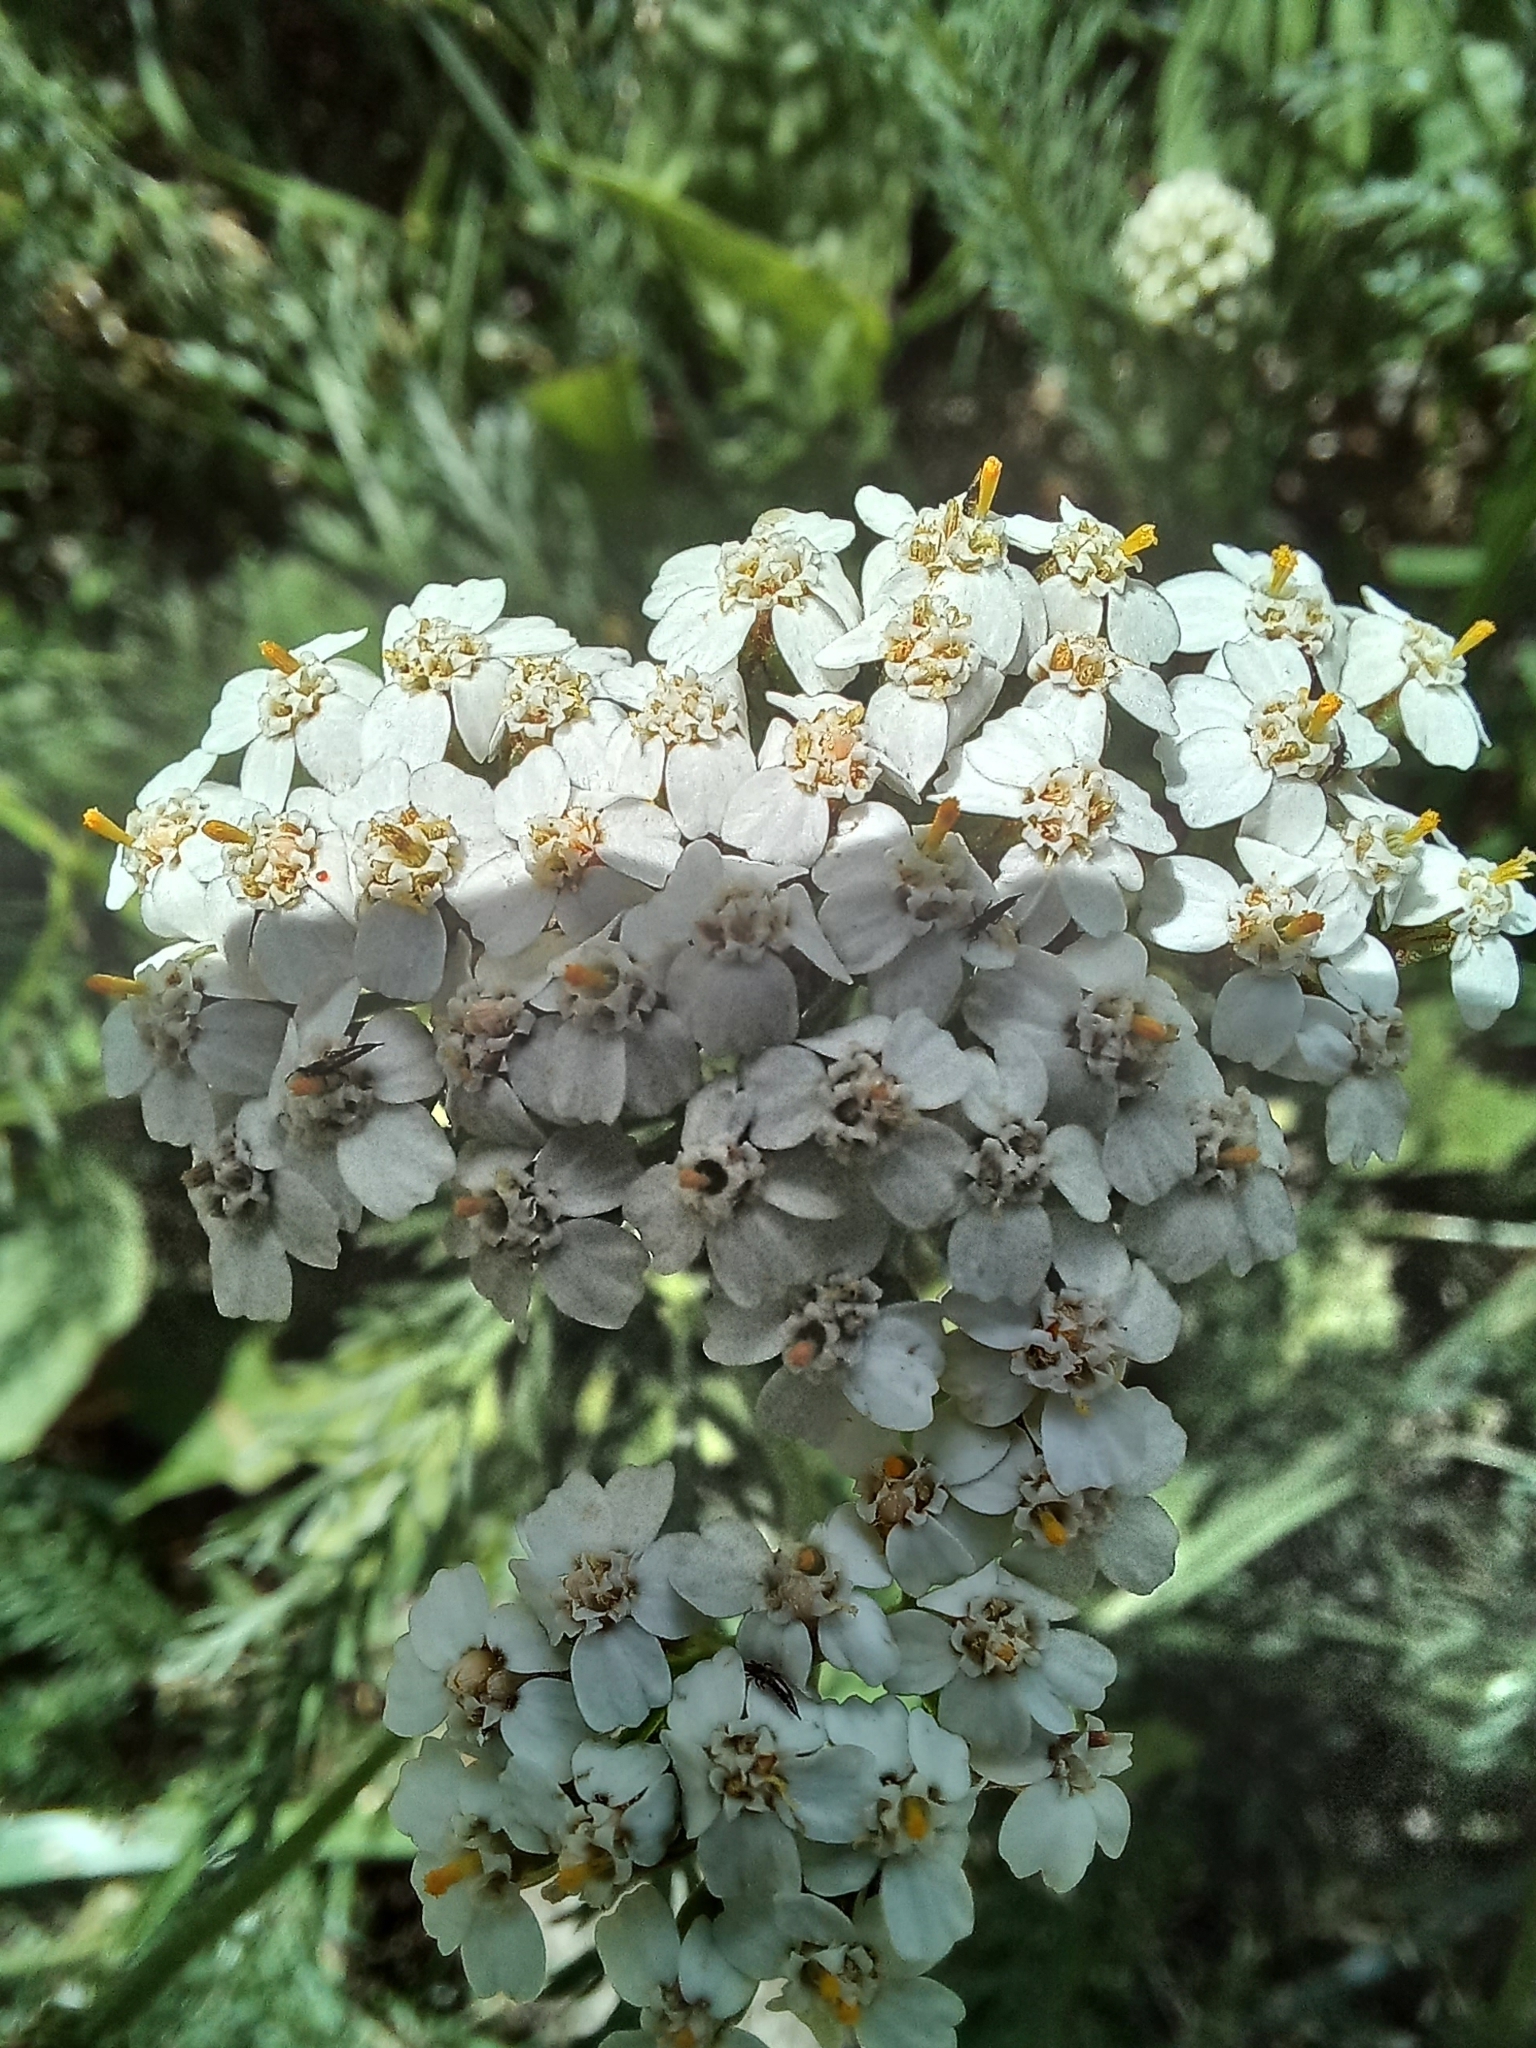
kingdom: Plantae
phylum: Tracheophyta
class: Magnoliopsida
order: Asterales
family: Asteraceae
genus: Achillea
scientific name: Achillea millefolium
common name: Yarrow
